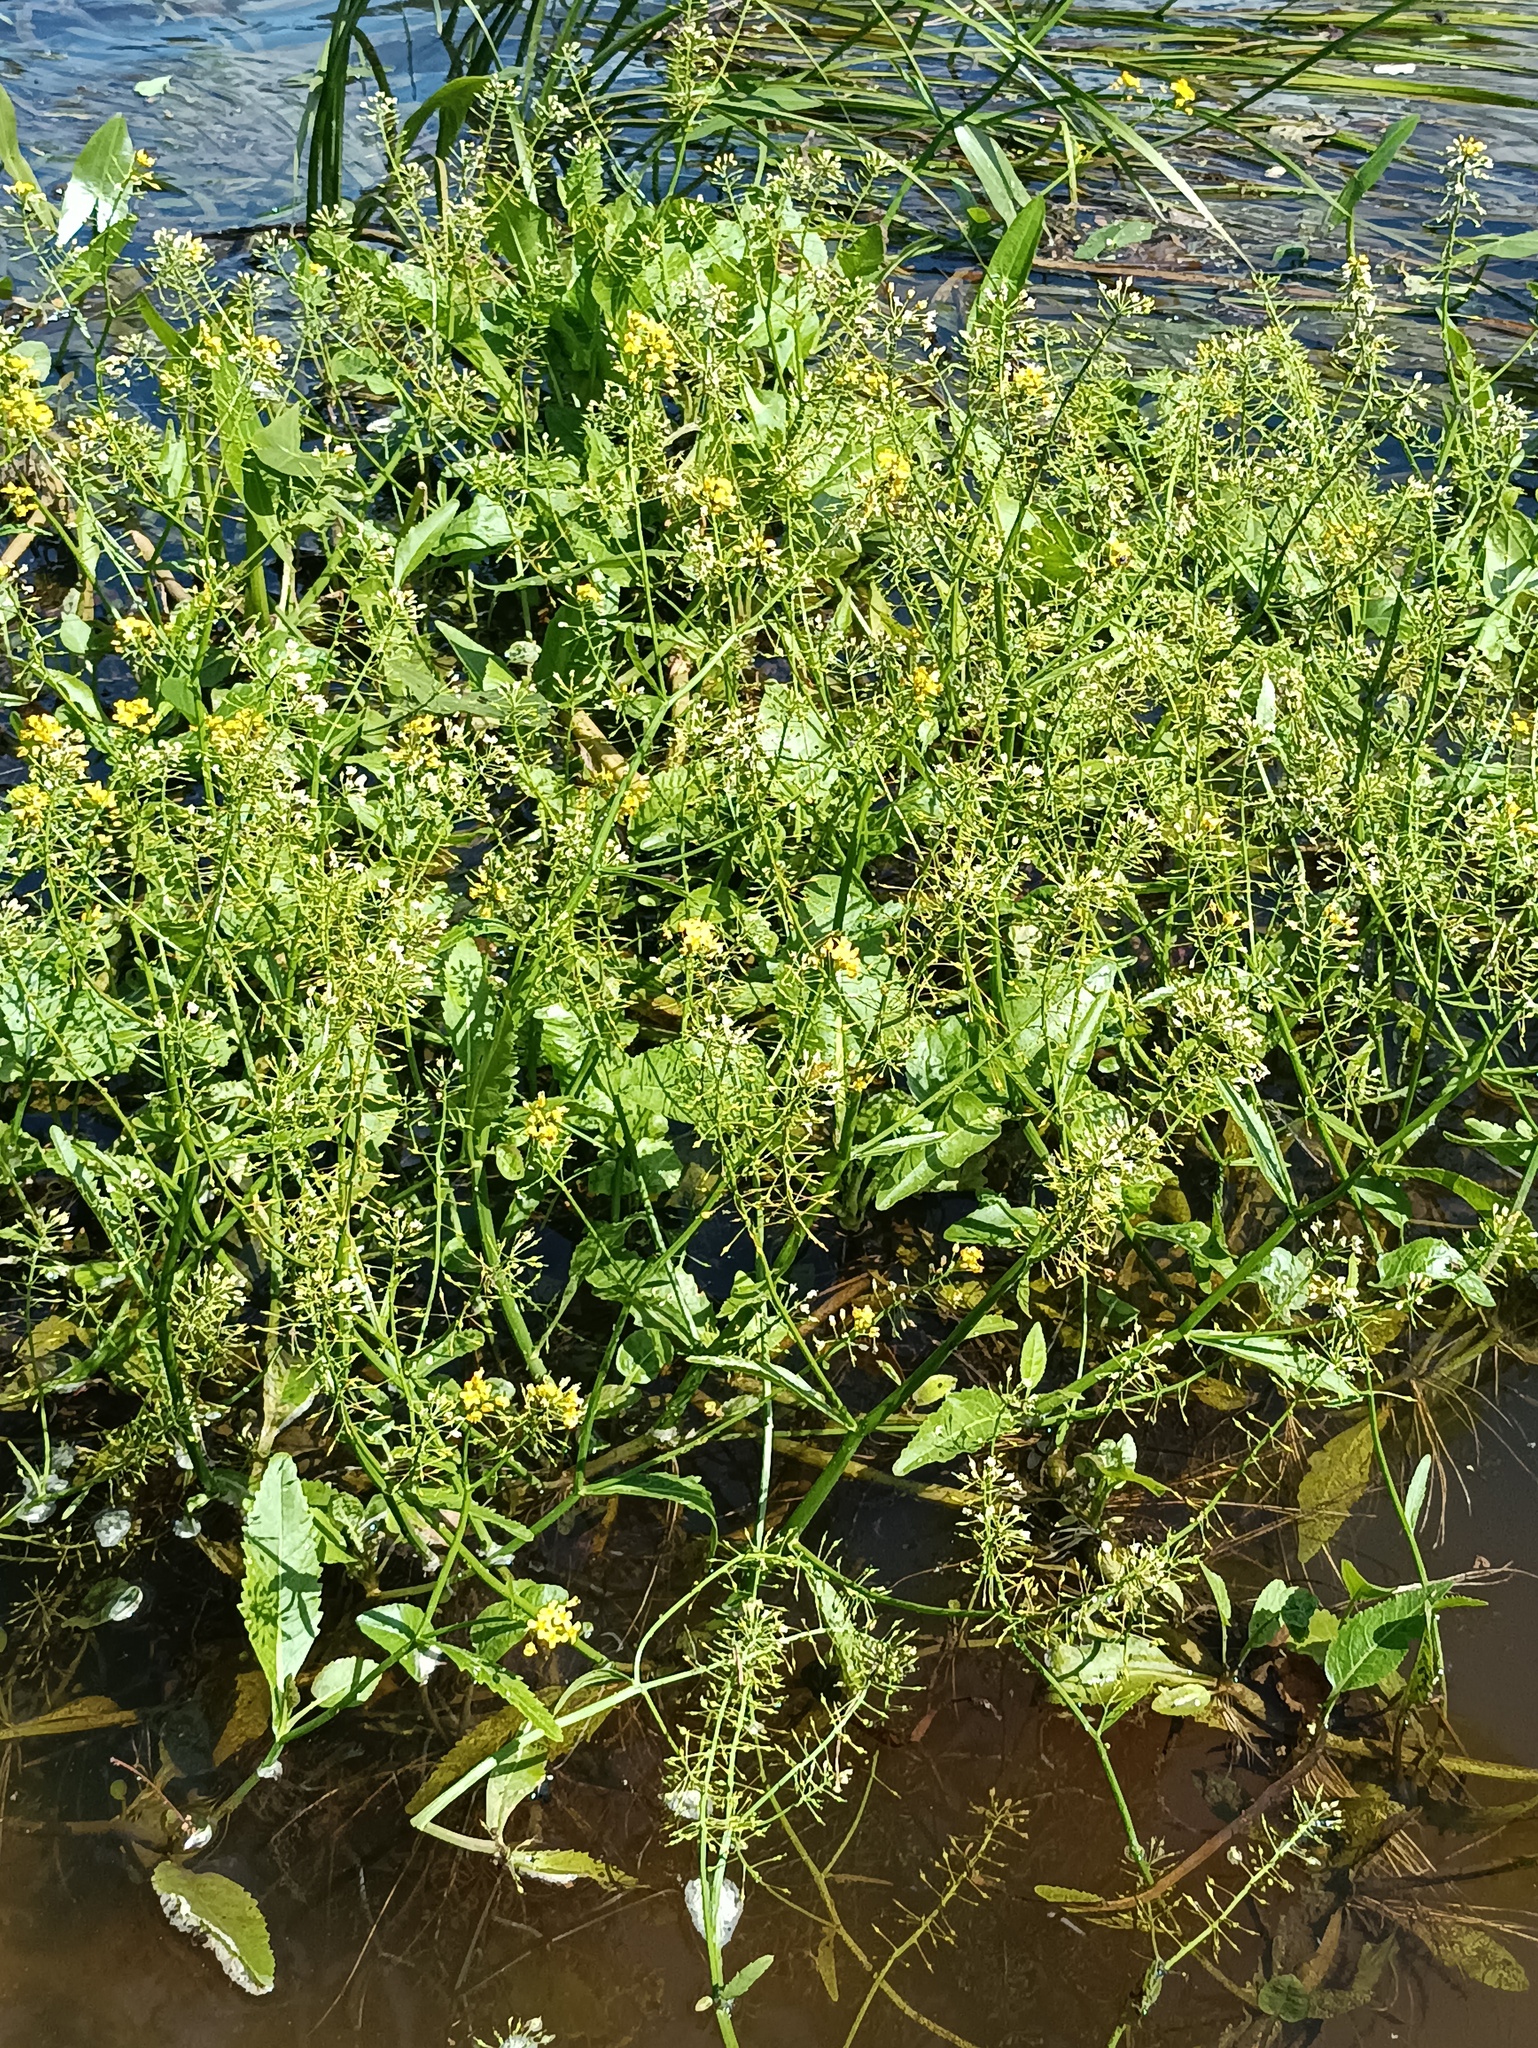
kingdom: Plantae
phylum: Tracheophyta
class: Magnoliopsida
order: Brassicales
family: Brassicaceae
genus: Rorippa
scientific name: Rorippa amphibia
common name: Great yellow-cress
